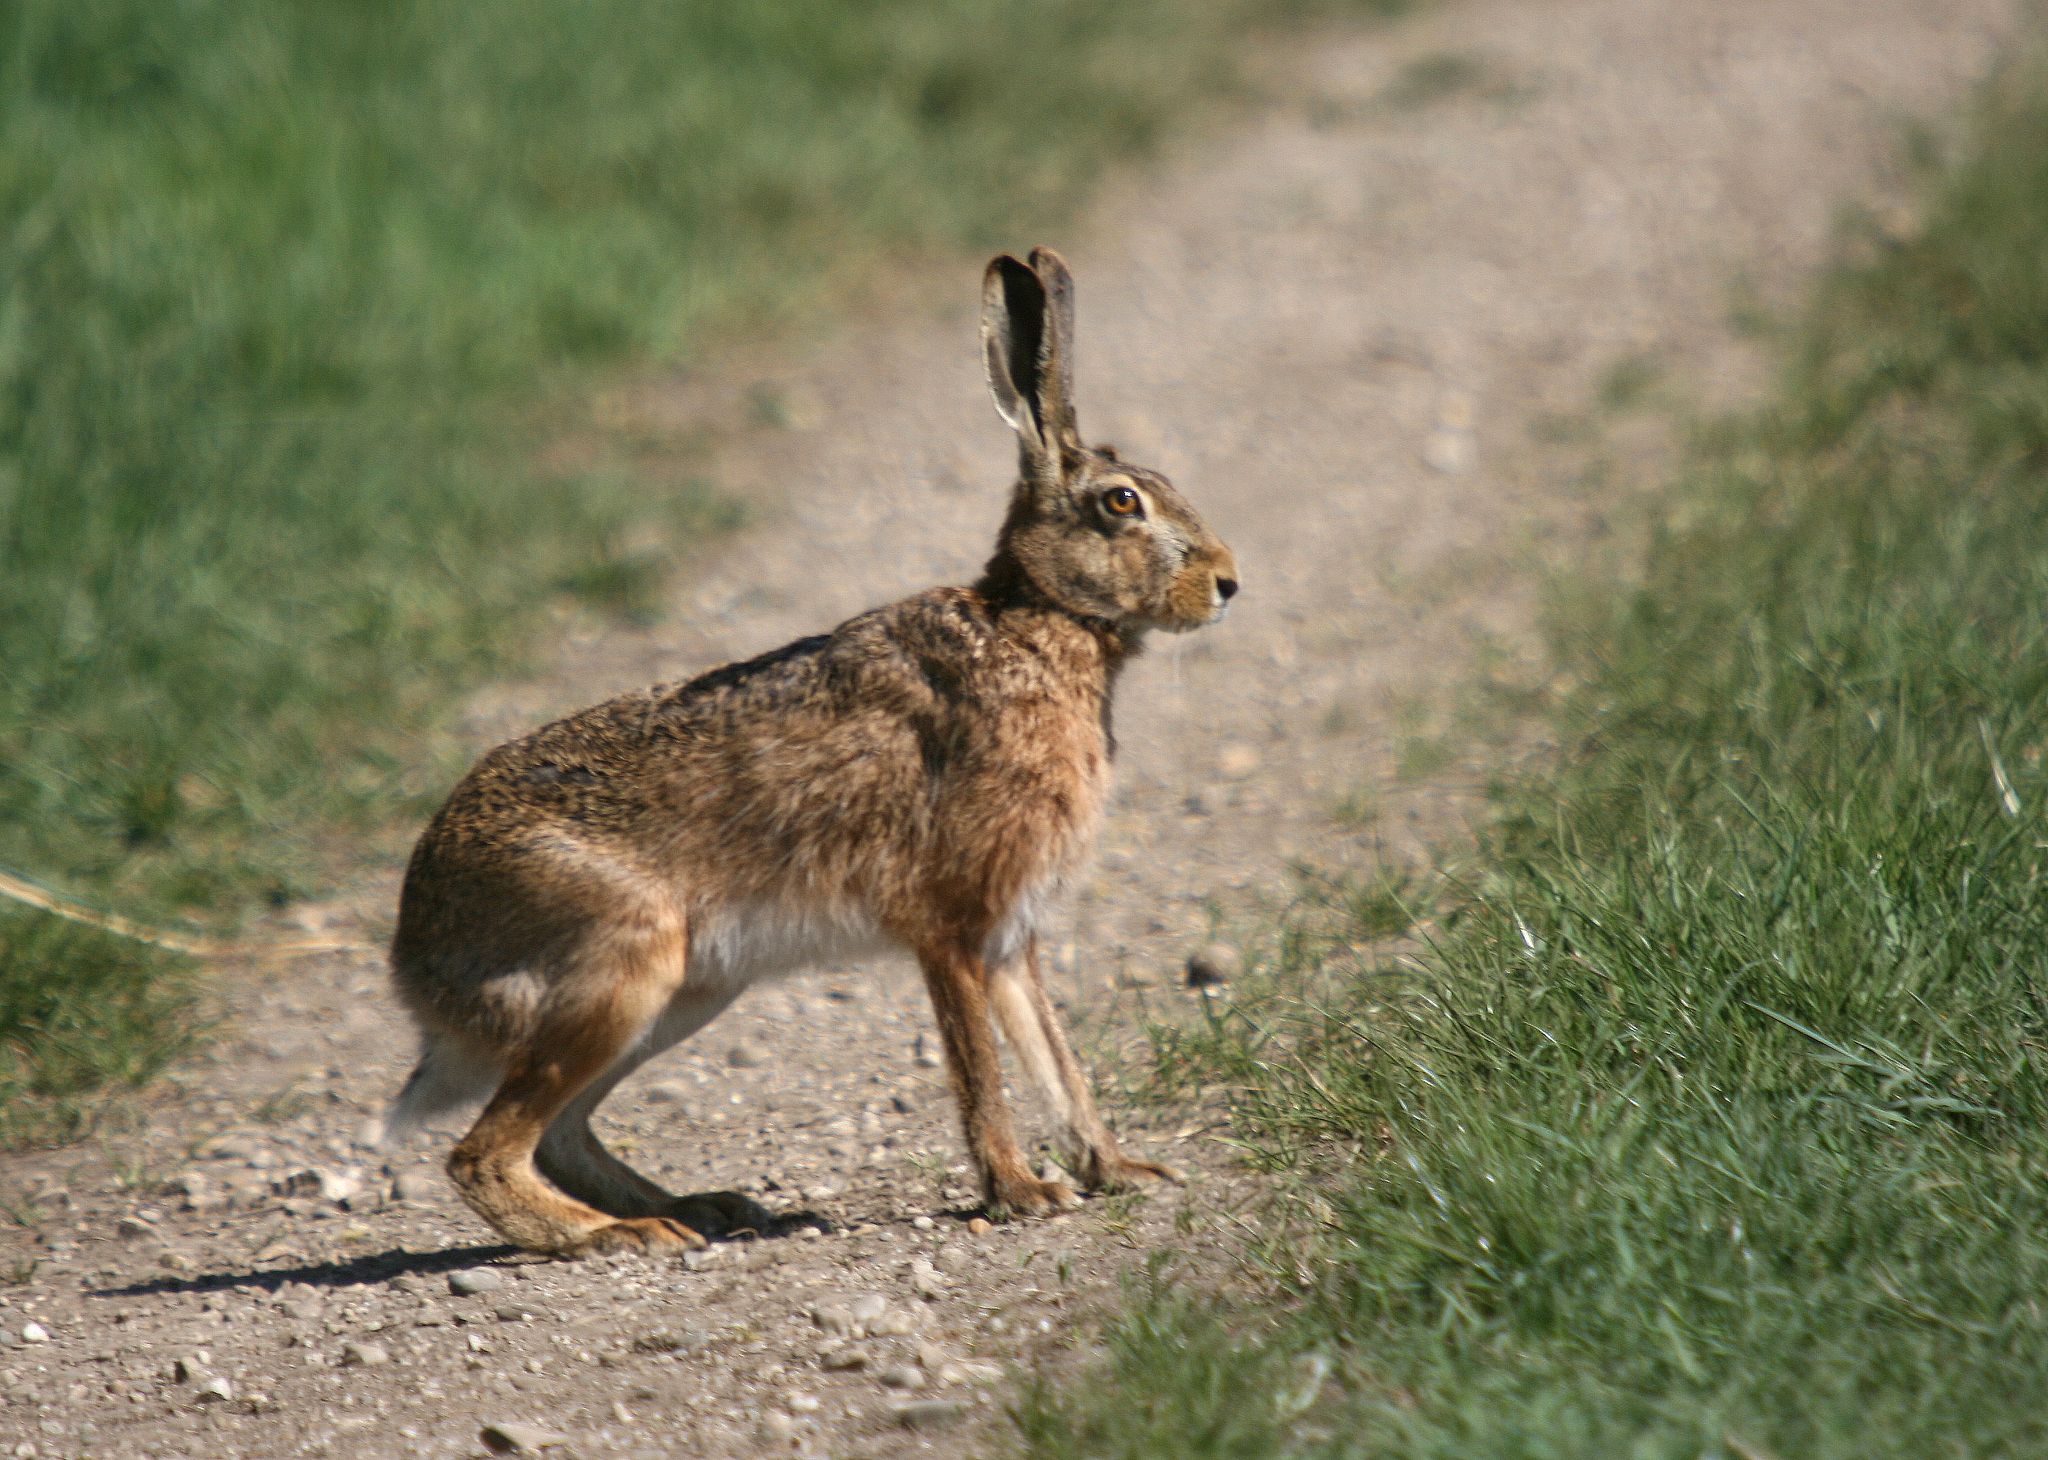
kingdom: Animalia
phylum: Chordata
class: Mammalia
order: Lagomorpha
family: Leporidae
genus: Lepus
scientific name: Lepus europaeus
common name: European hare
